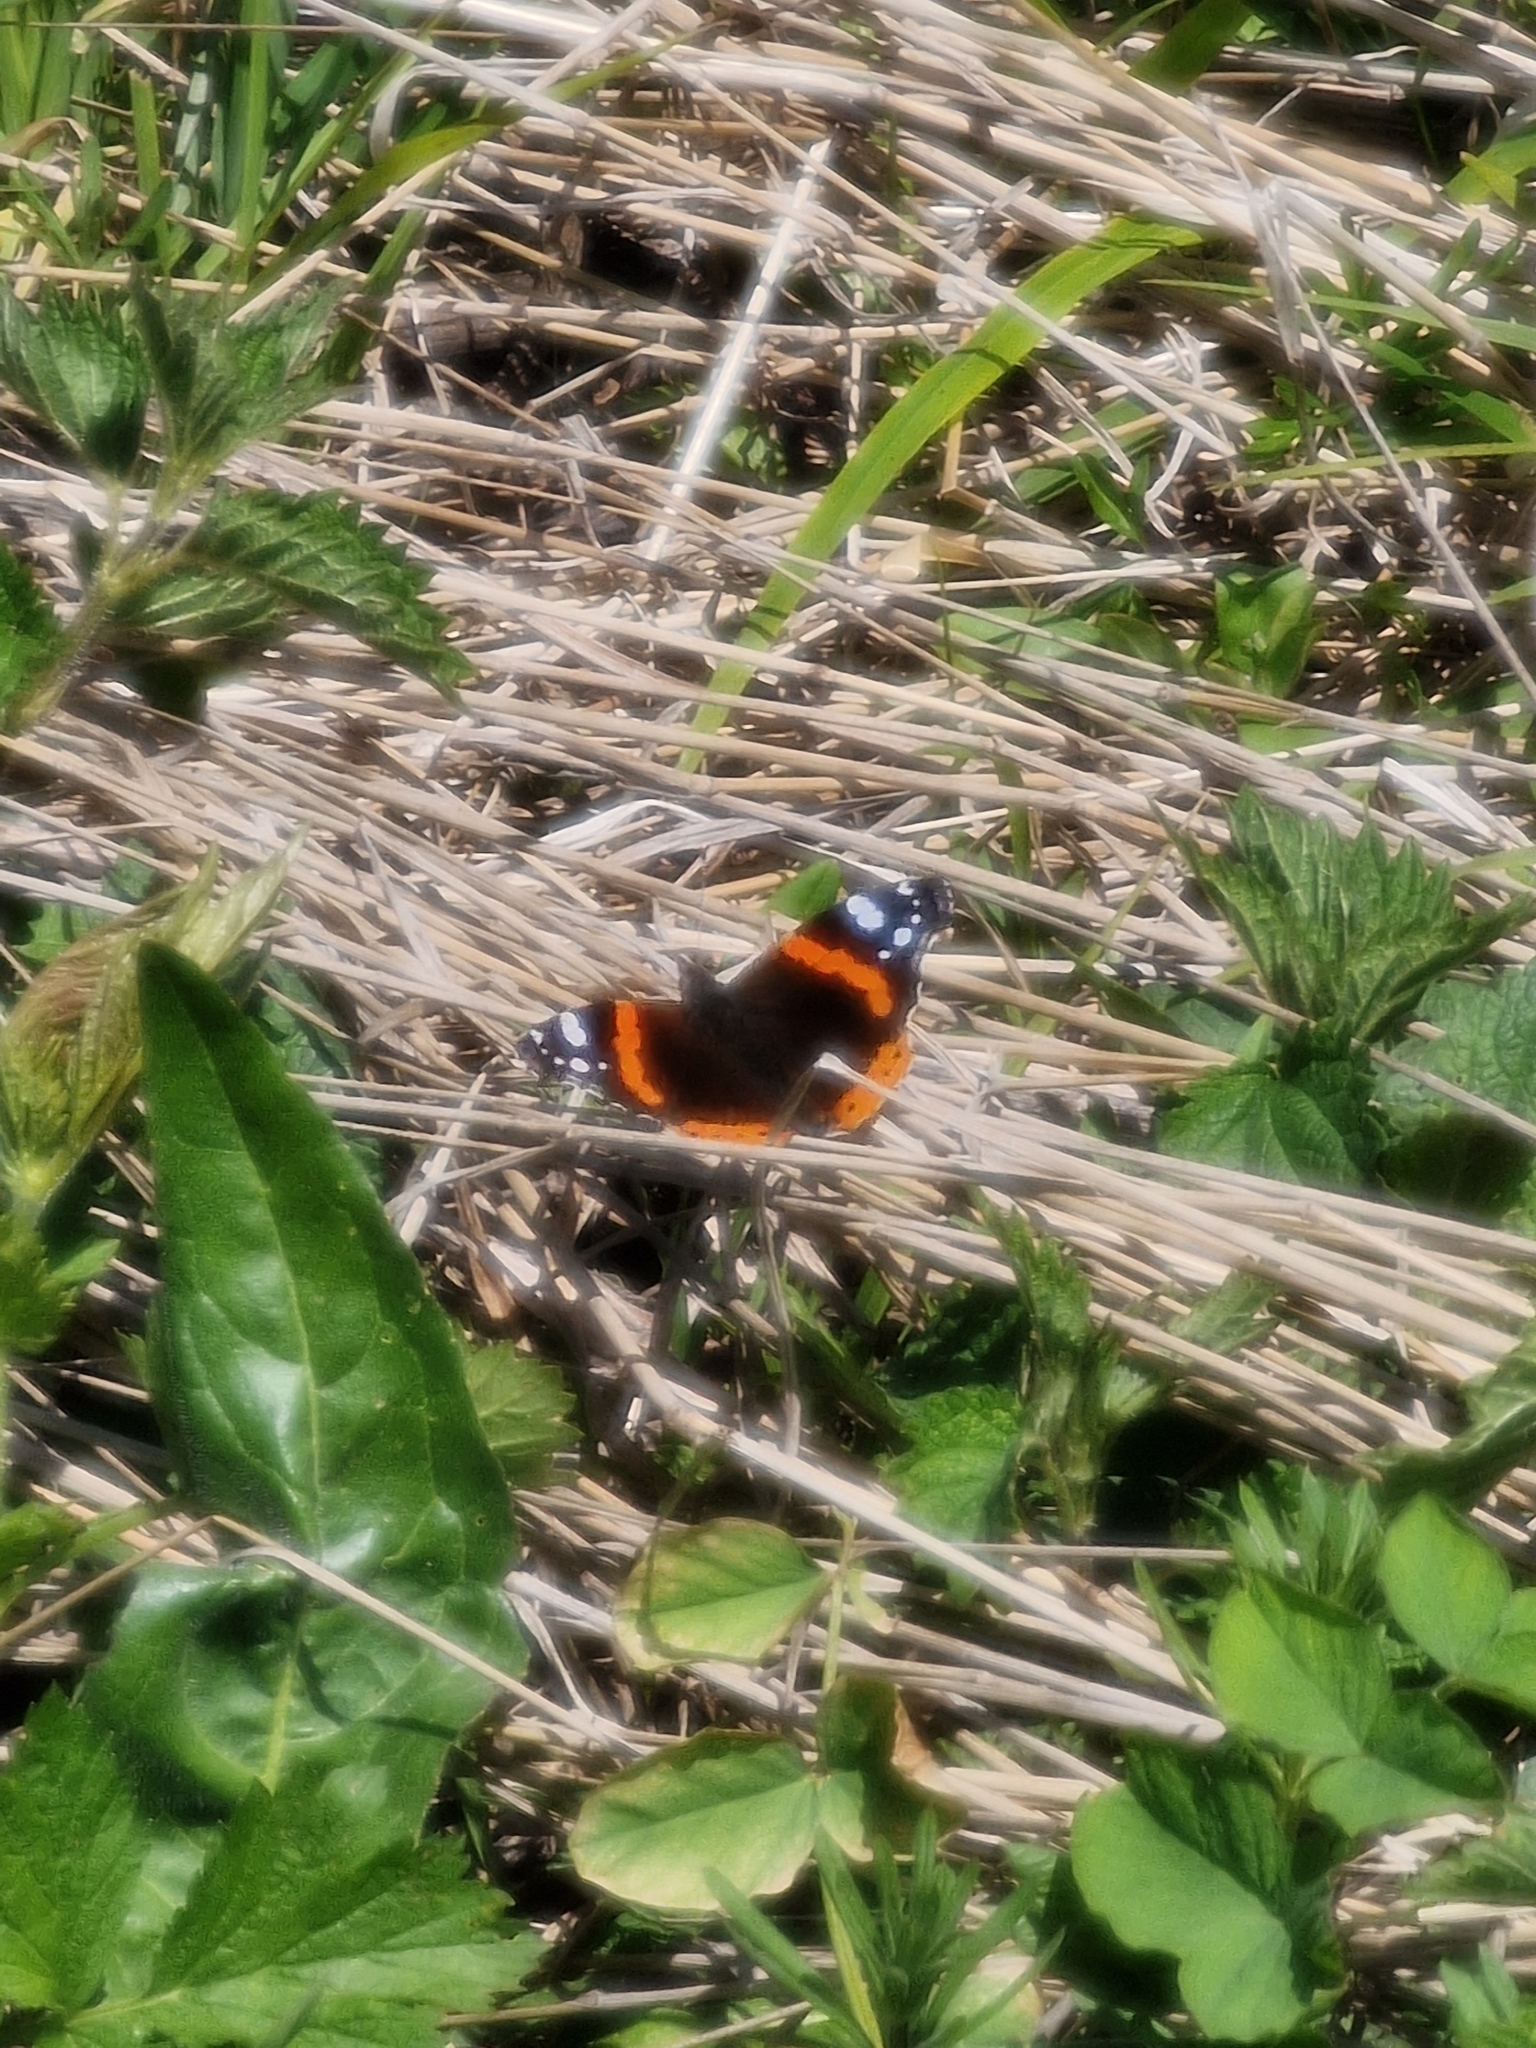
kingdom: Animalia
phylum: Arthropoda
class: Insecta
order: Lepidoptera
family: Nymphalidae
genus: Vanessa
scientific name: Vanessa atalanta
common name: Red admiral
